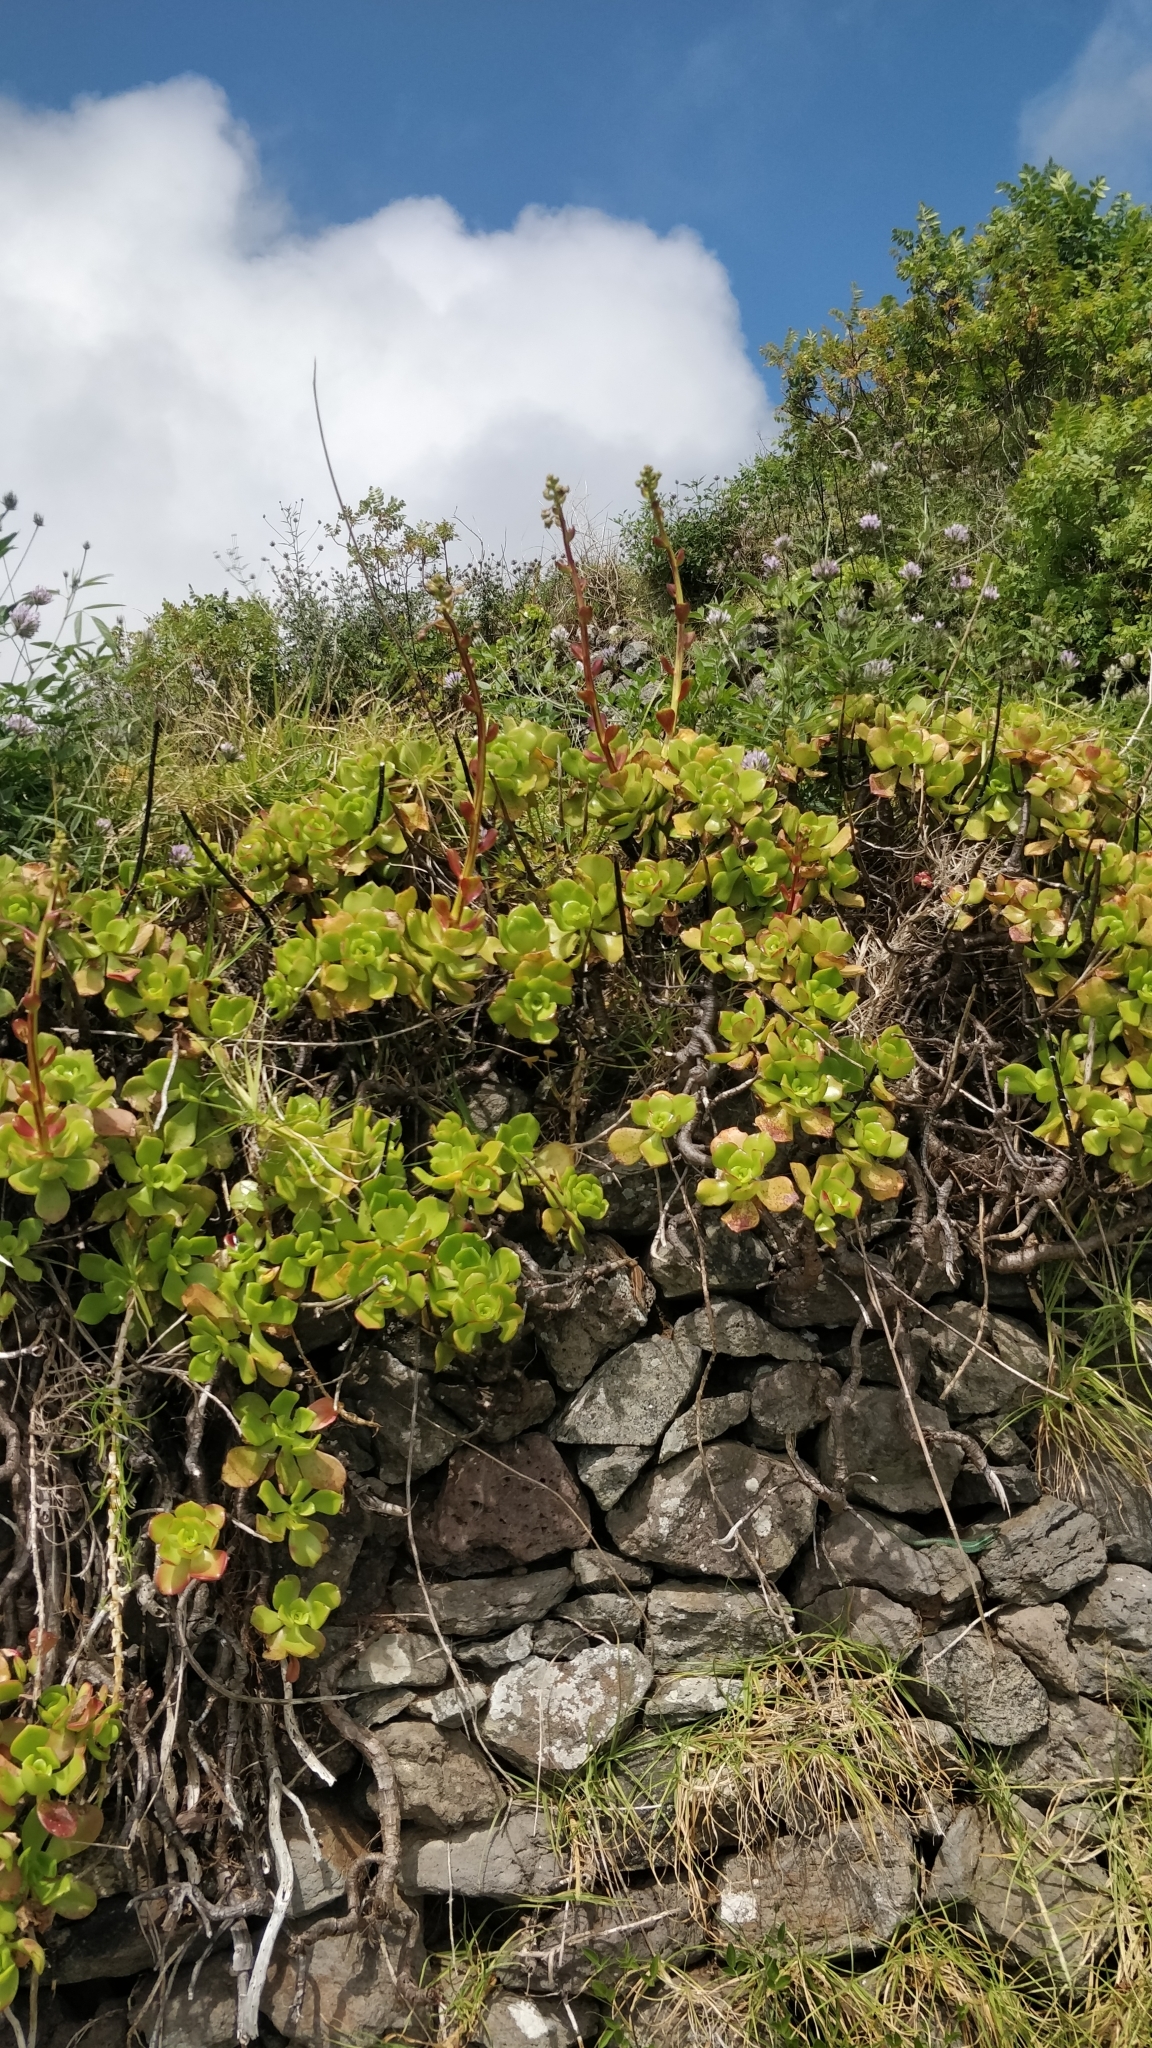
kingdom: Plantae
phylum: Tracheophyta
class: Magnoliopsida
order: Saxifragales
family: Crassulaceae
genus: Aeonium
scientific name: Aeonium glutinosum
